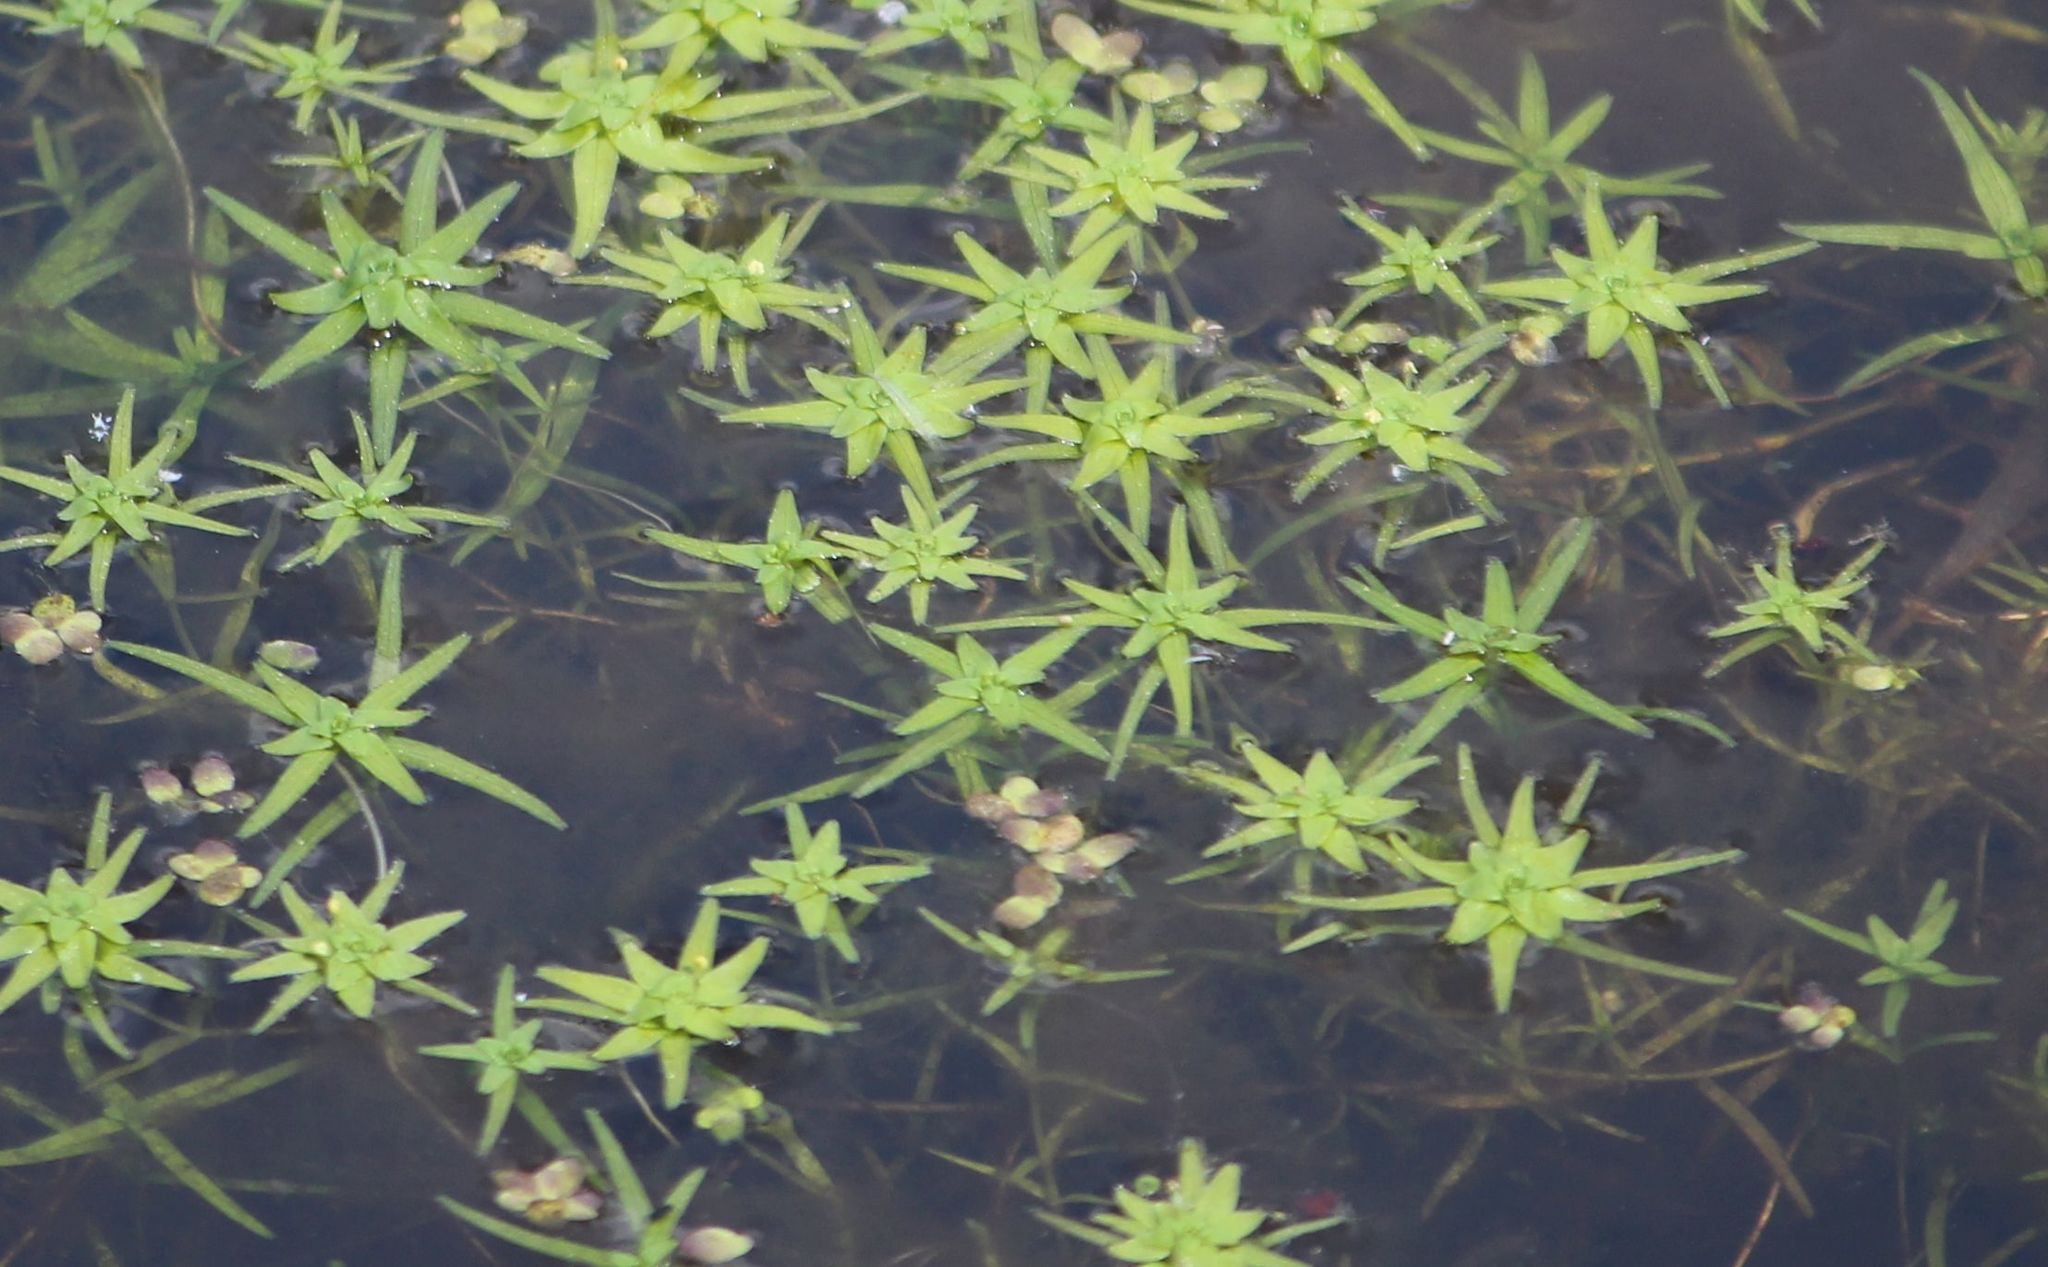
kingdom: Plantae
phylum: Tracheophyta
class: Magnoliopsida
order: Lamiales
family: Plantaginaceae
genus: Callitriche
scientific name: Callitriche palustris
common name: Spring water-starwort
